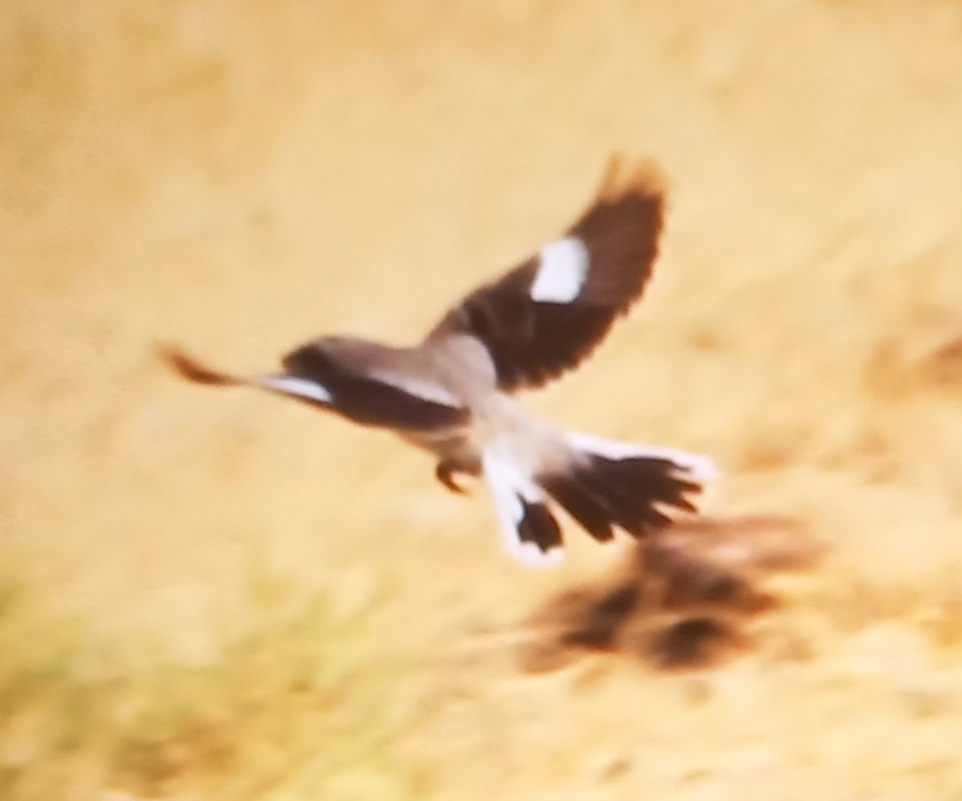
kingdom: Animalia
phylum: Chordata
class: Aves
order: Passeriformes
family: Laniidae
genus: Lanius
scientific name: Lanius minor
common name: Lesser grey shrike
